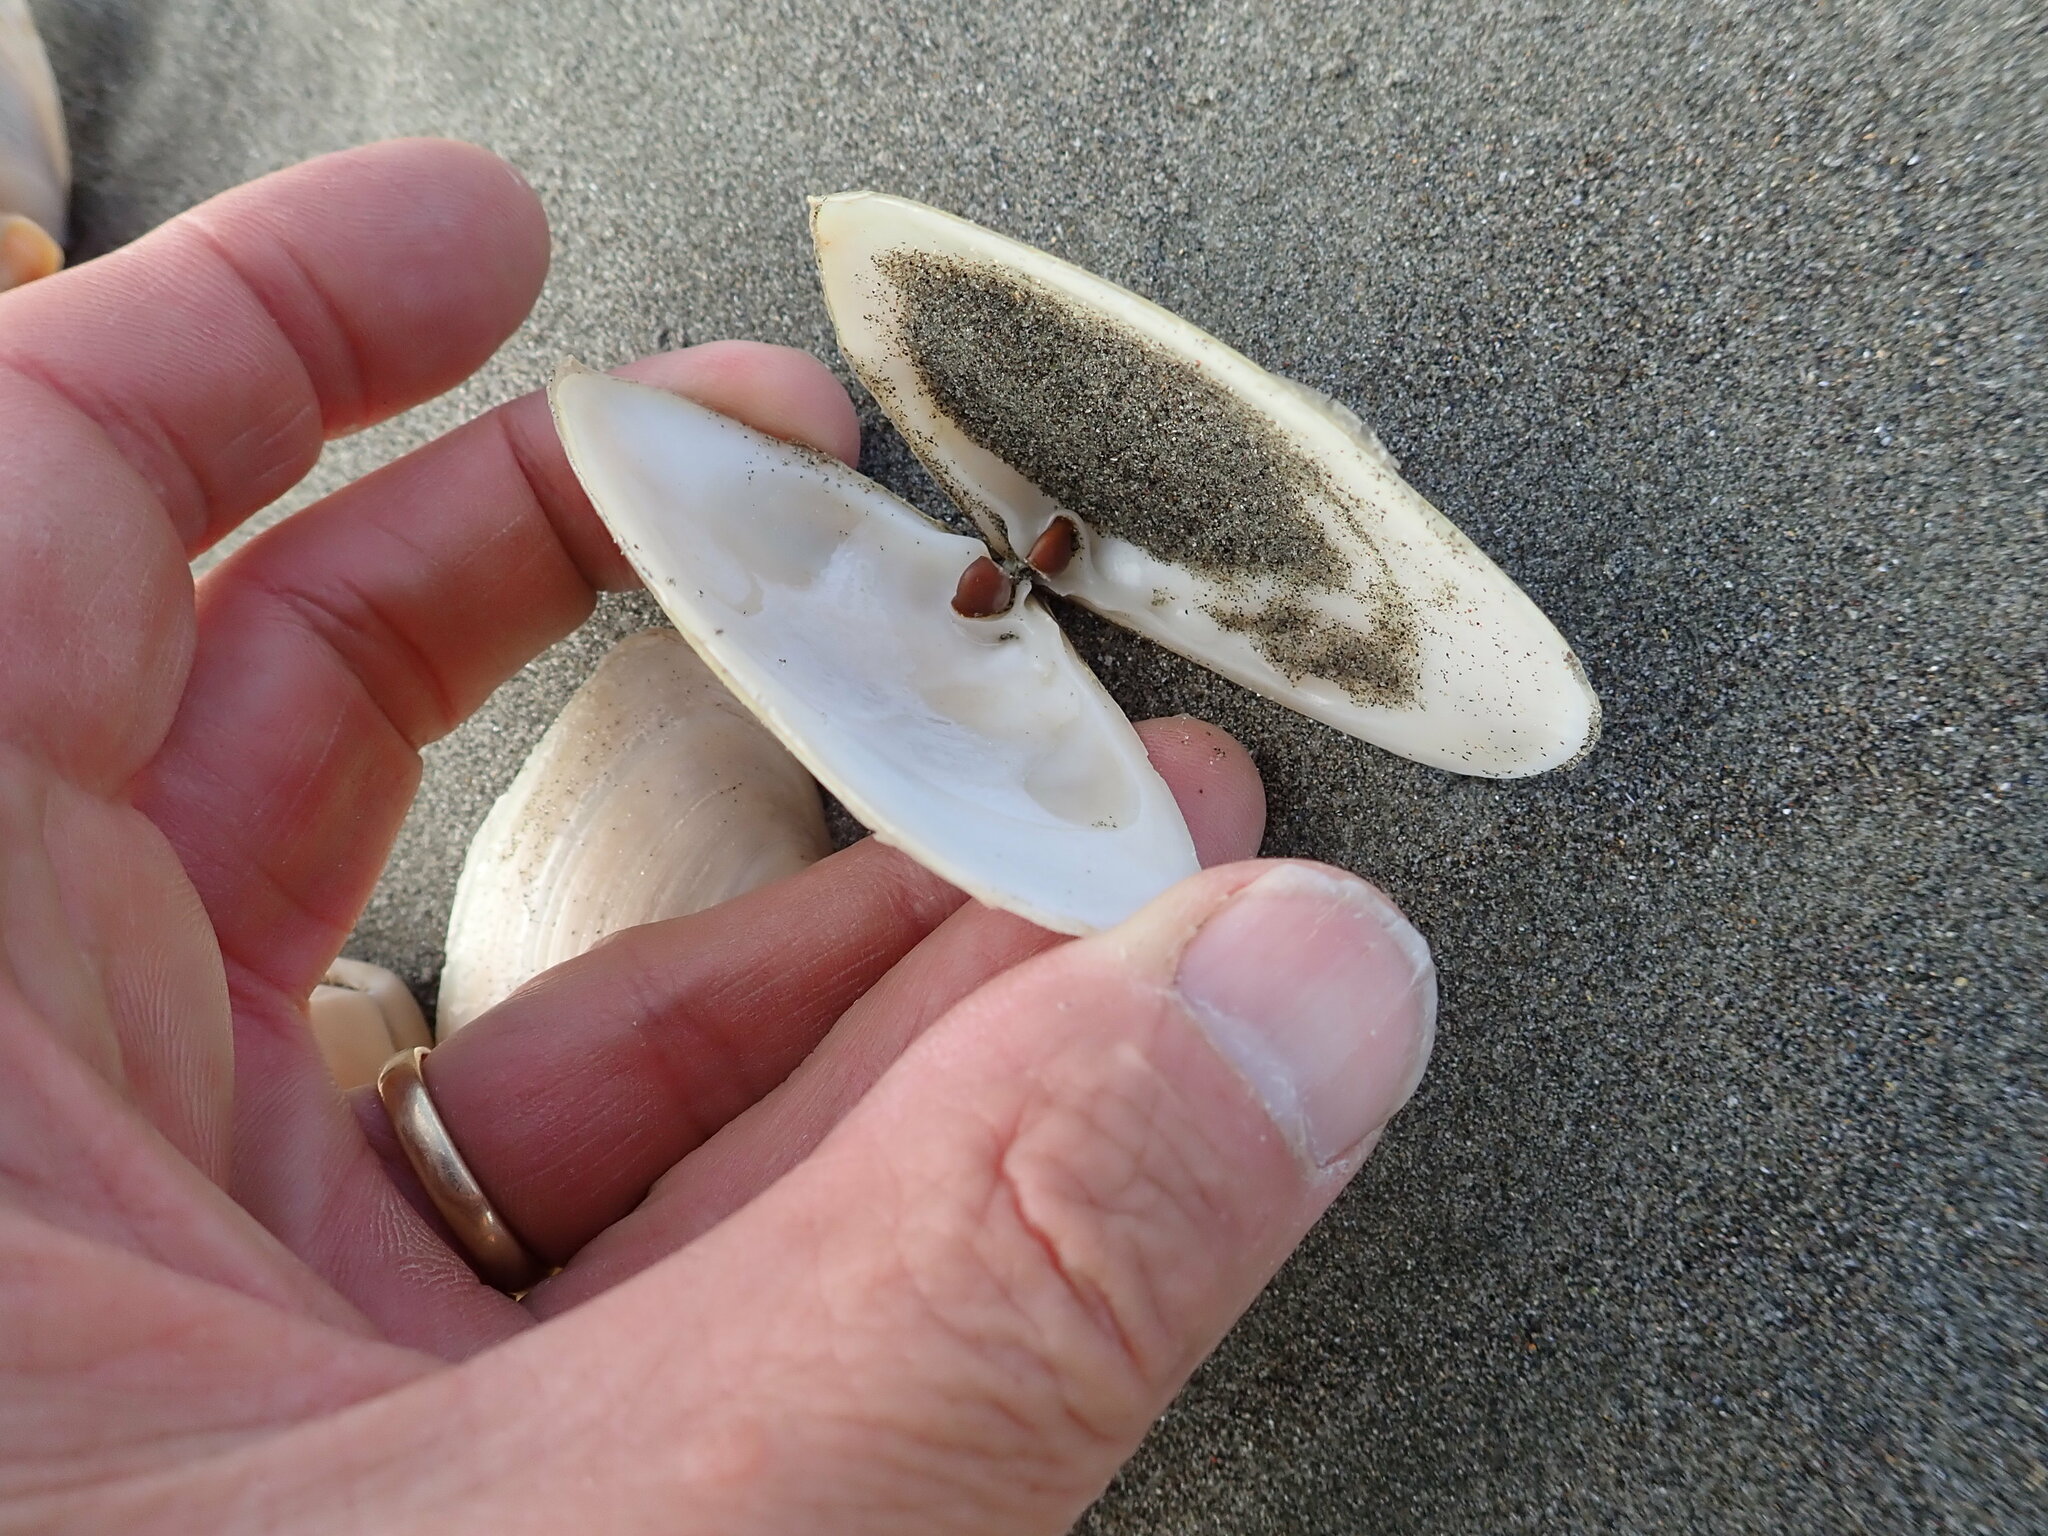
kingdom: Animalia
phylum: Mollusca
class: Bivalvia
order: Venerida
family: Mesodesmatidae
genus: Paphies
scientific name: Paphies donacina
